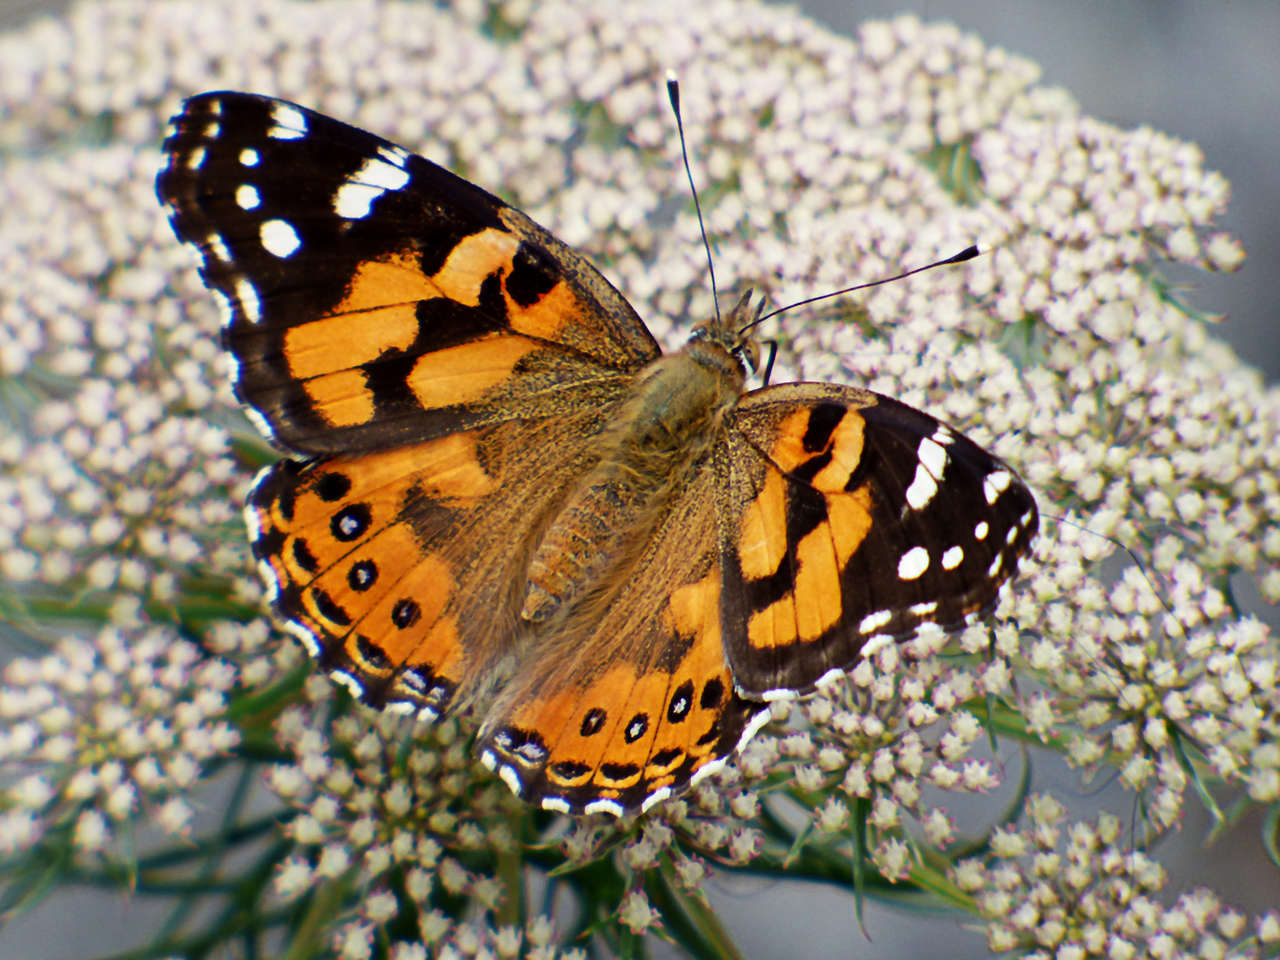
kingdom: Animalia
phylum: Arthropoda
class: Insecta
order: Lepidoptera
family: Nymphalidae
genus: Vanessa
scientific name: Vanessa kershawi
